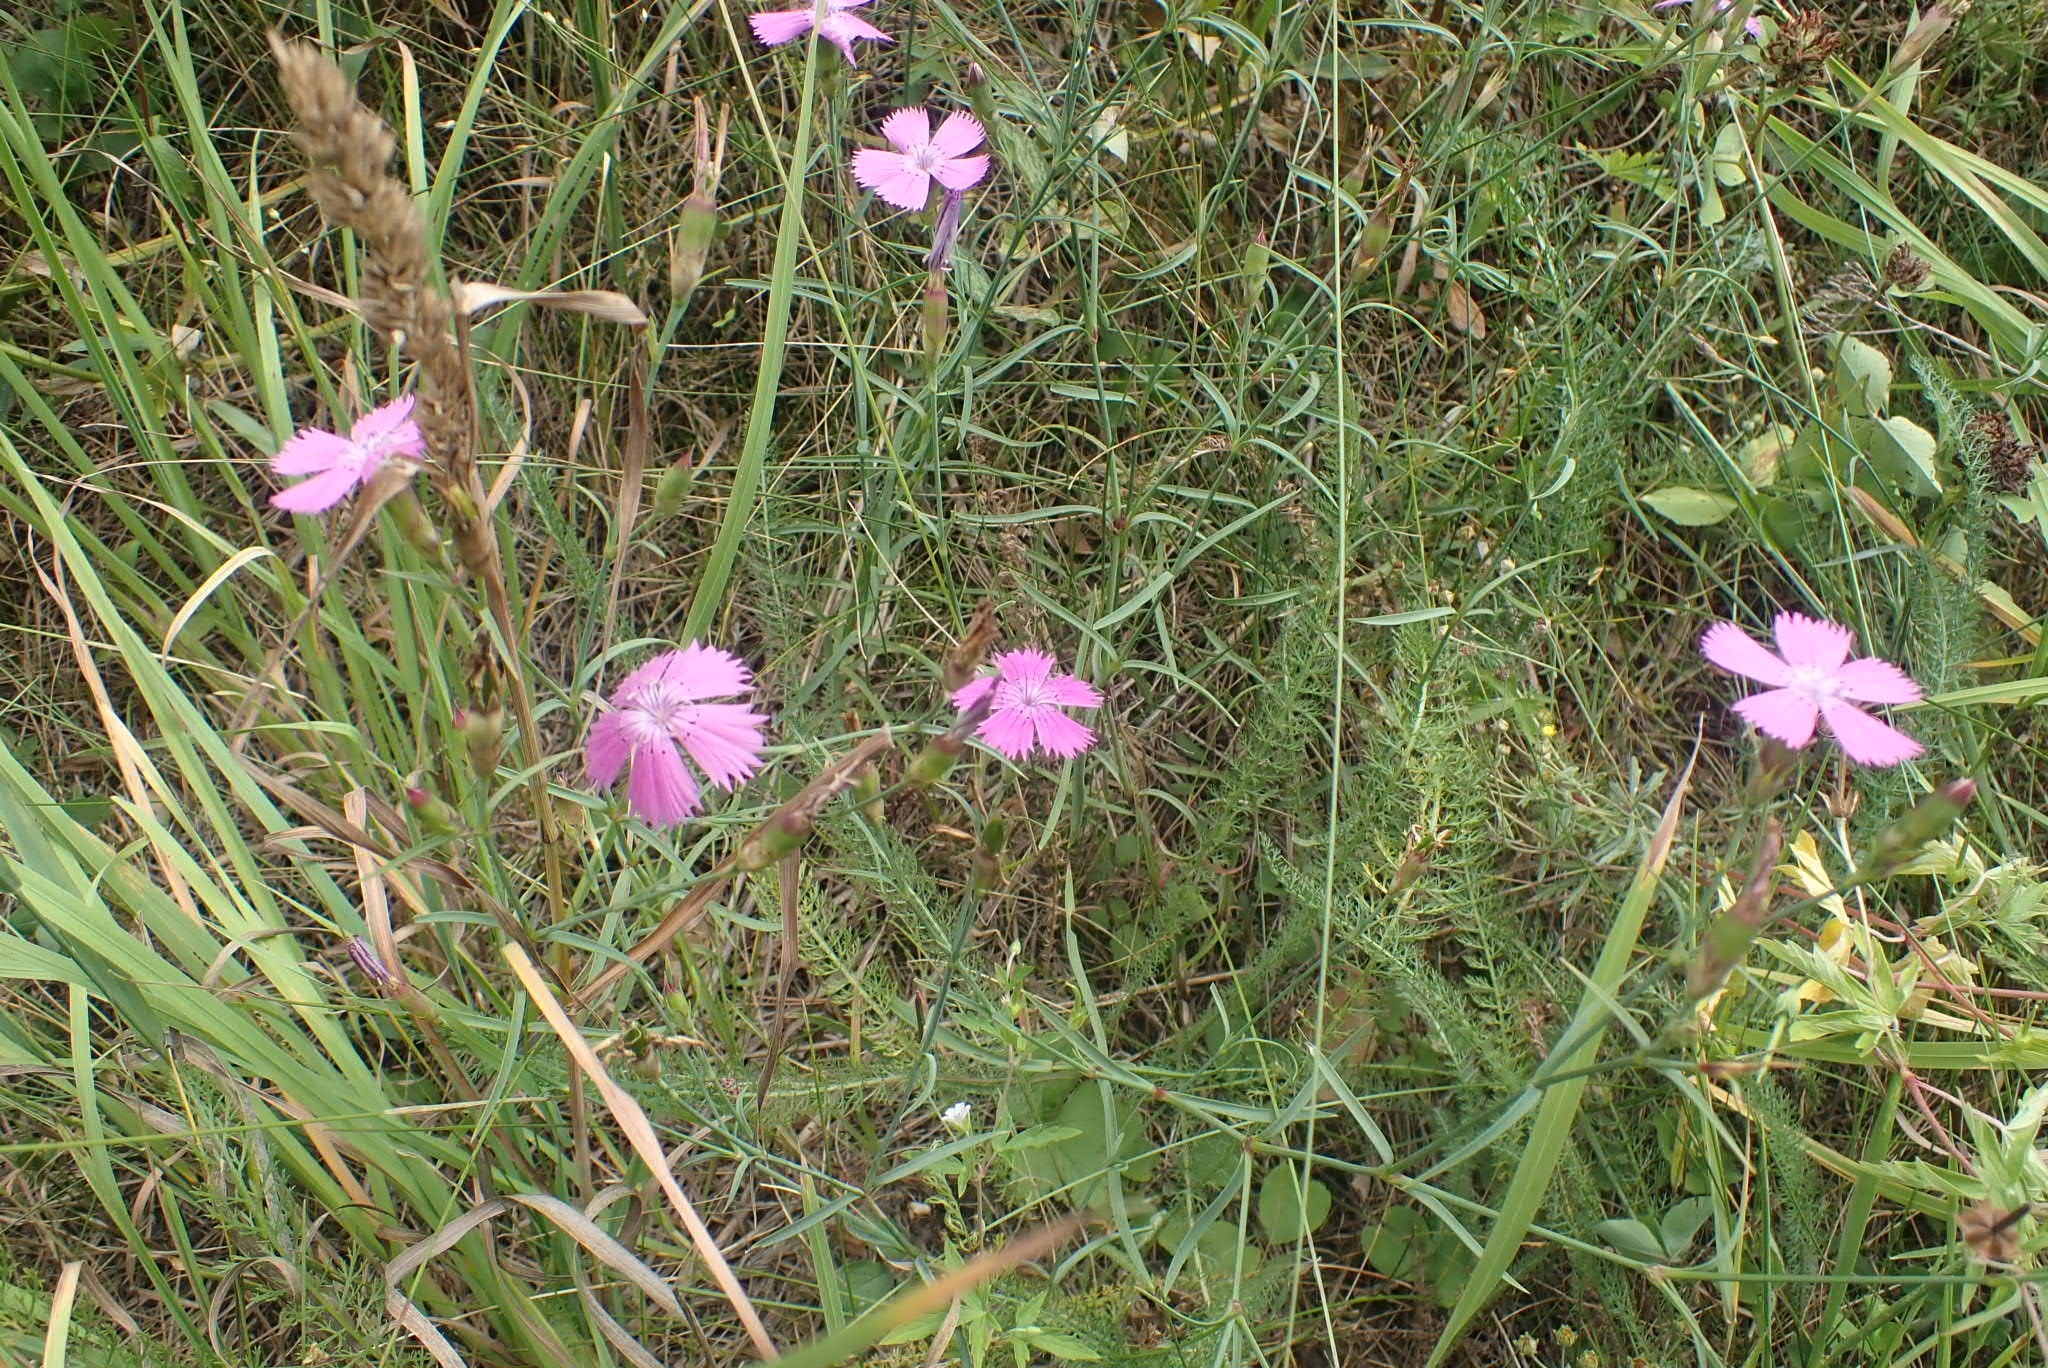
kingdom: Plantae
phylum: Tracheophyta
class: Magnoliopsida
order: Caryophyllales
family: Caryophyllaceae
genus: Dianthus
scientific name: Dianthus chinensis
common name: Rainbow pink
